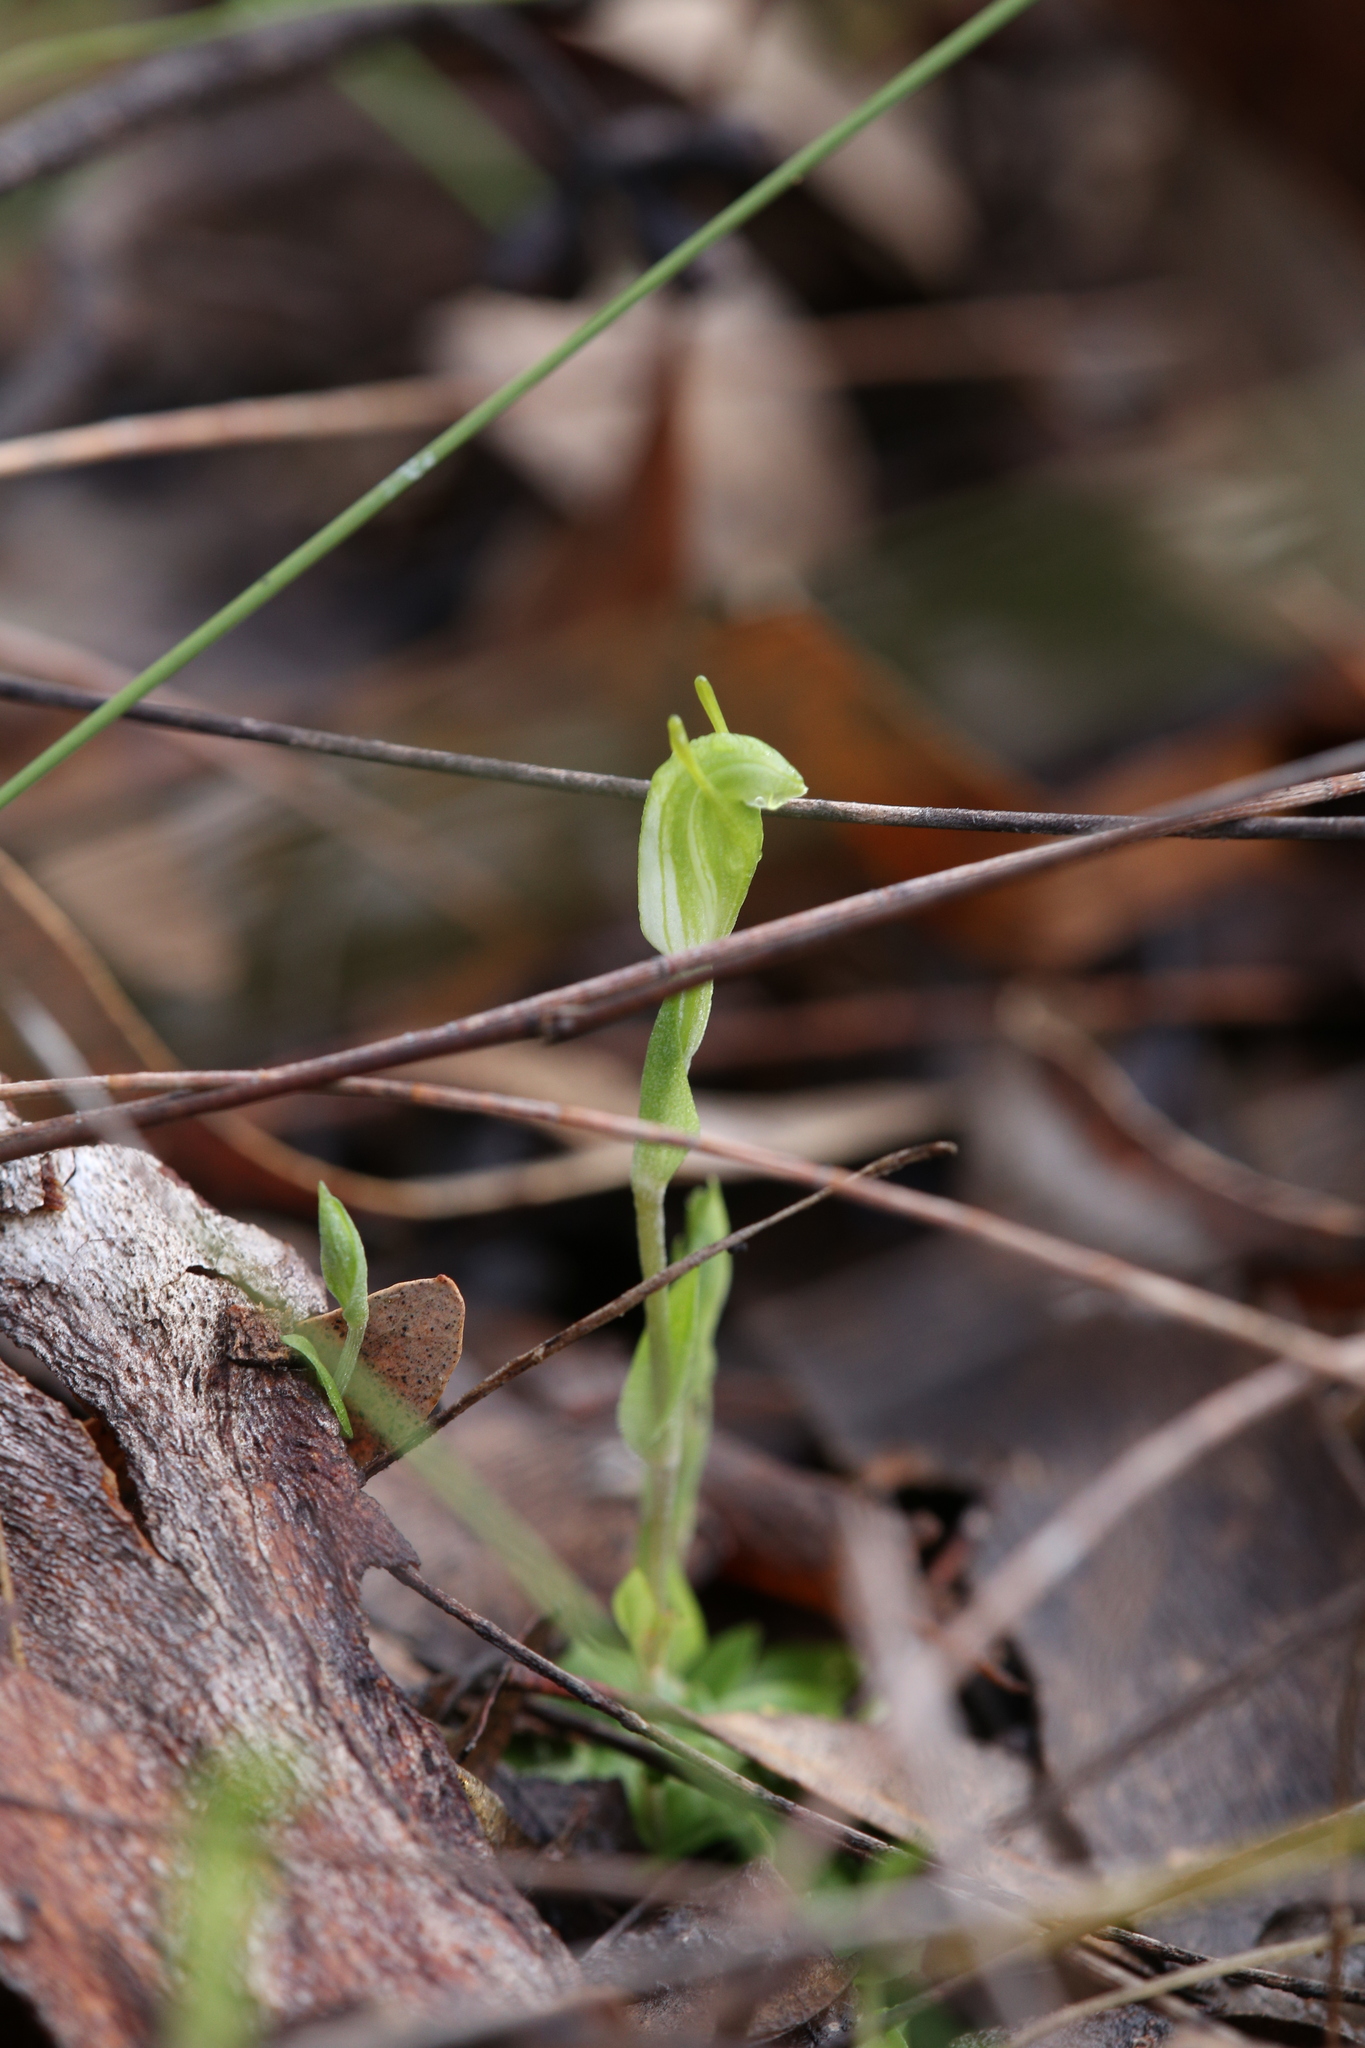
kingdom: Plantae
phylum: Tracheophyta
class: Liliopsida
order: Asparagales
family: Orchidaceae
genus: Pterostylis
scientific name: Pterostylis brevisepala
